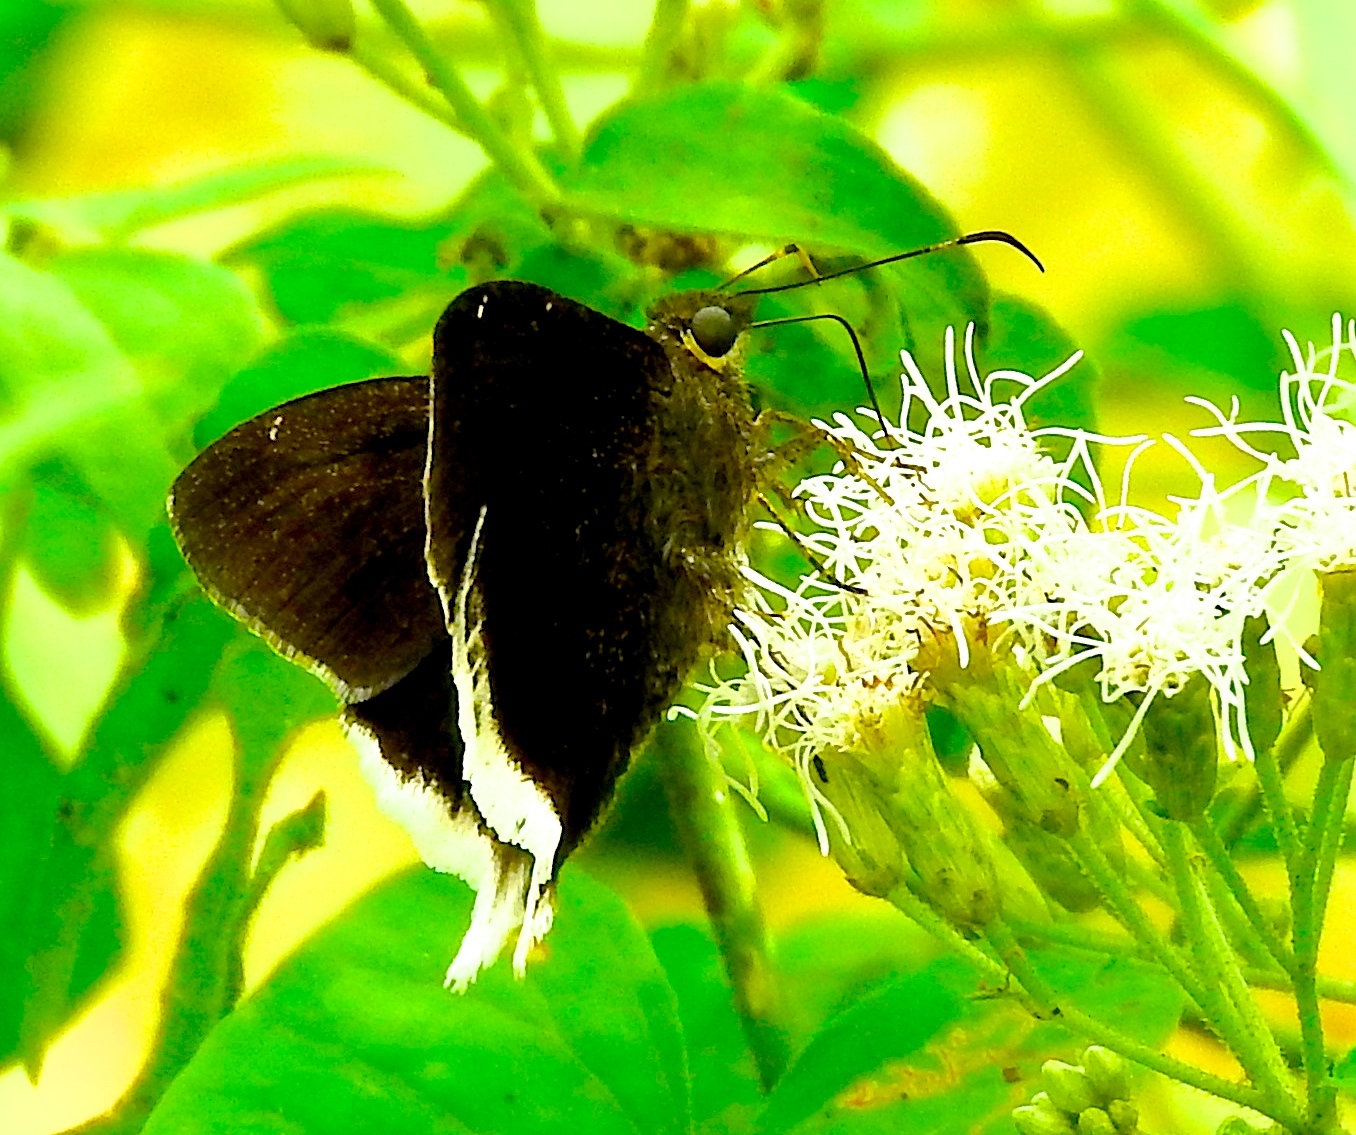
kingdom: Animalia
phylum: Arthropoda
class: Insecta
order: Lepidoptera
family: Hesperiidae
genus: Achalarus
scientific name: Achalarus
